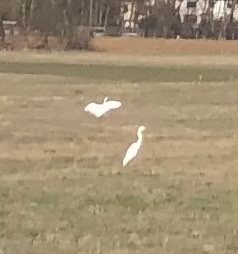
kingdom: Animalia
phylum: Chordata
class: Aves
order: Pelecaniformes
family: Ardeidae
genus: Ardea
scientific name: Ardea alba
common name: Great egret
